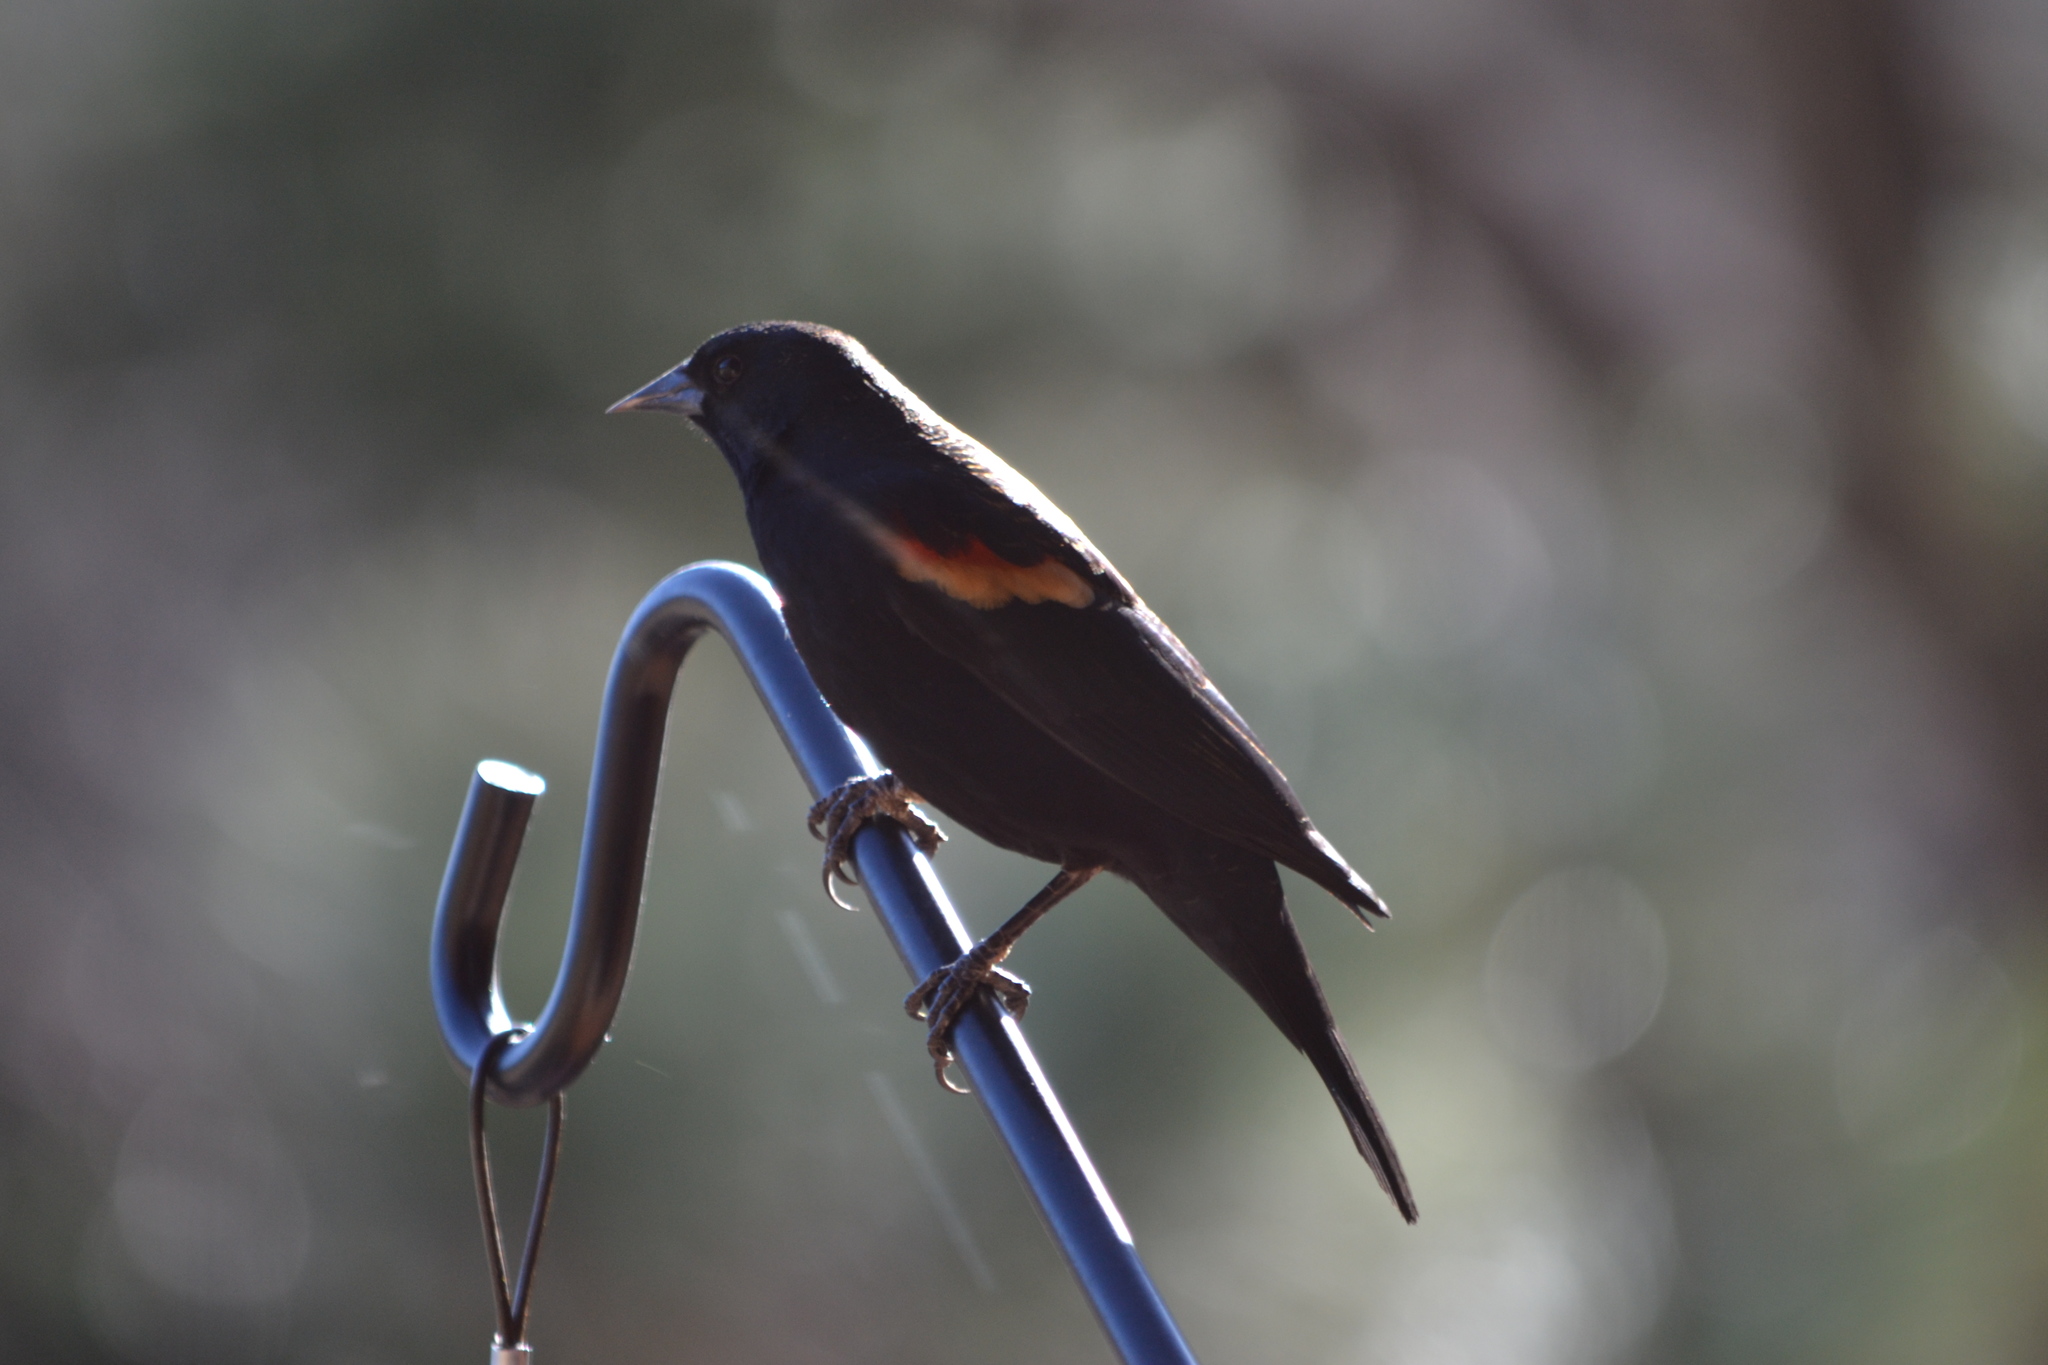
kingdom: Animalia
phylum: Chordata
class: Aves
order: Passeriformes
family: Icteridae
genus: Agelaius
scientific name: Agelaius phoeniceus
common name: Red-winged blackbird
